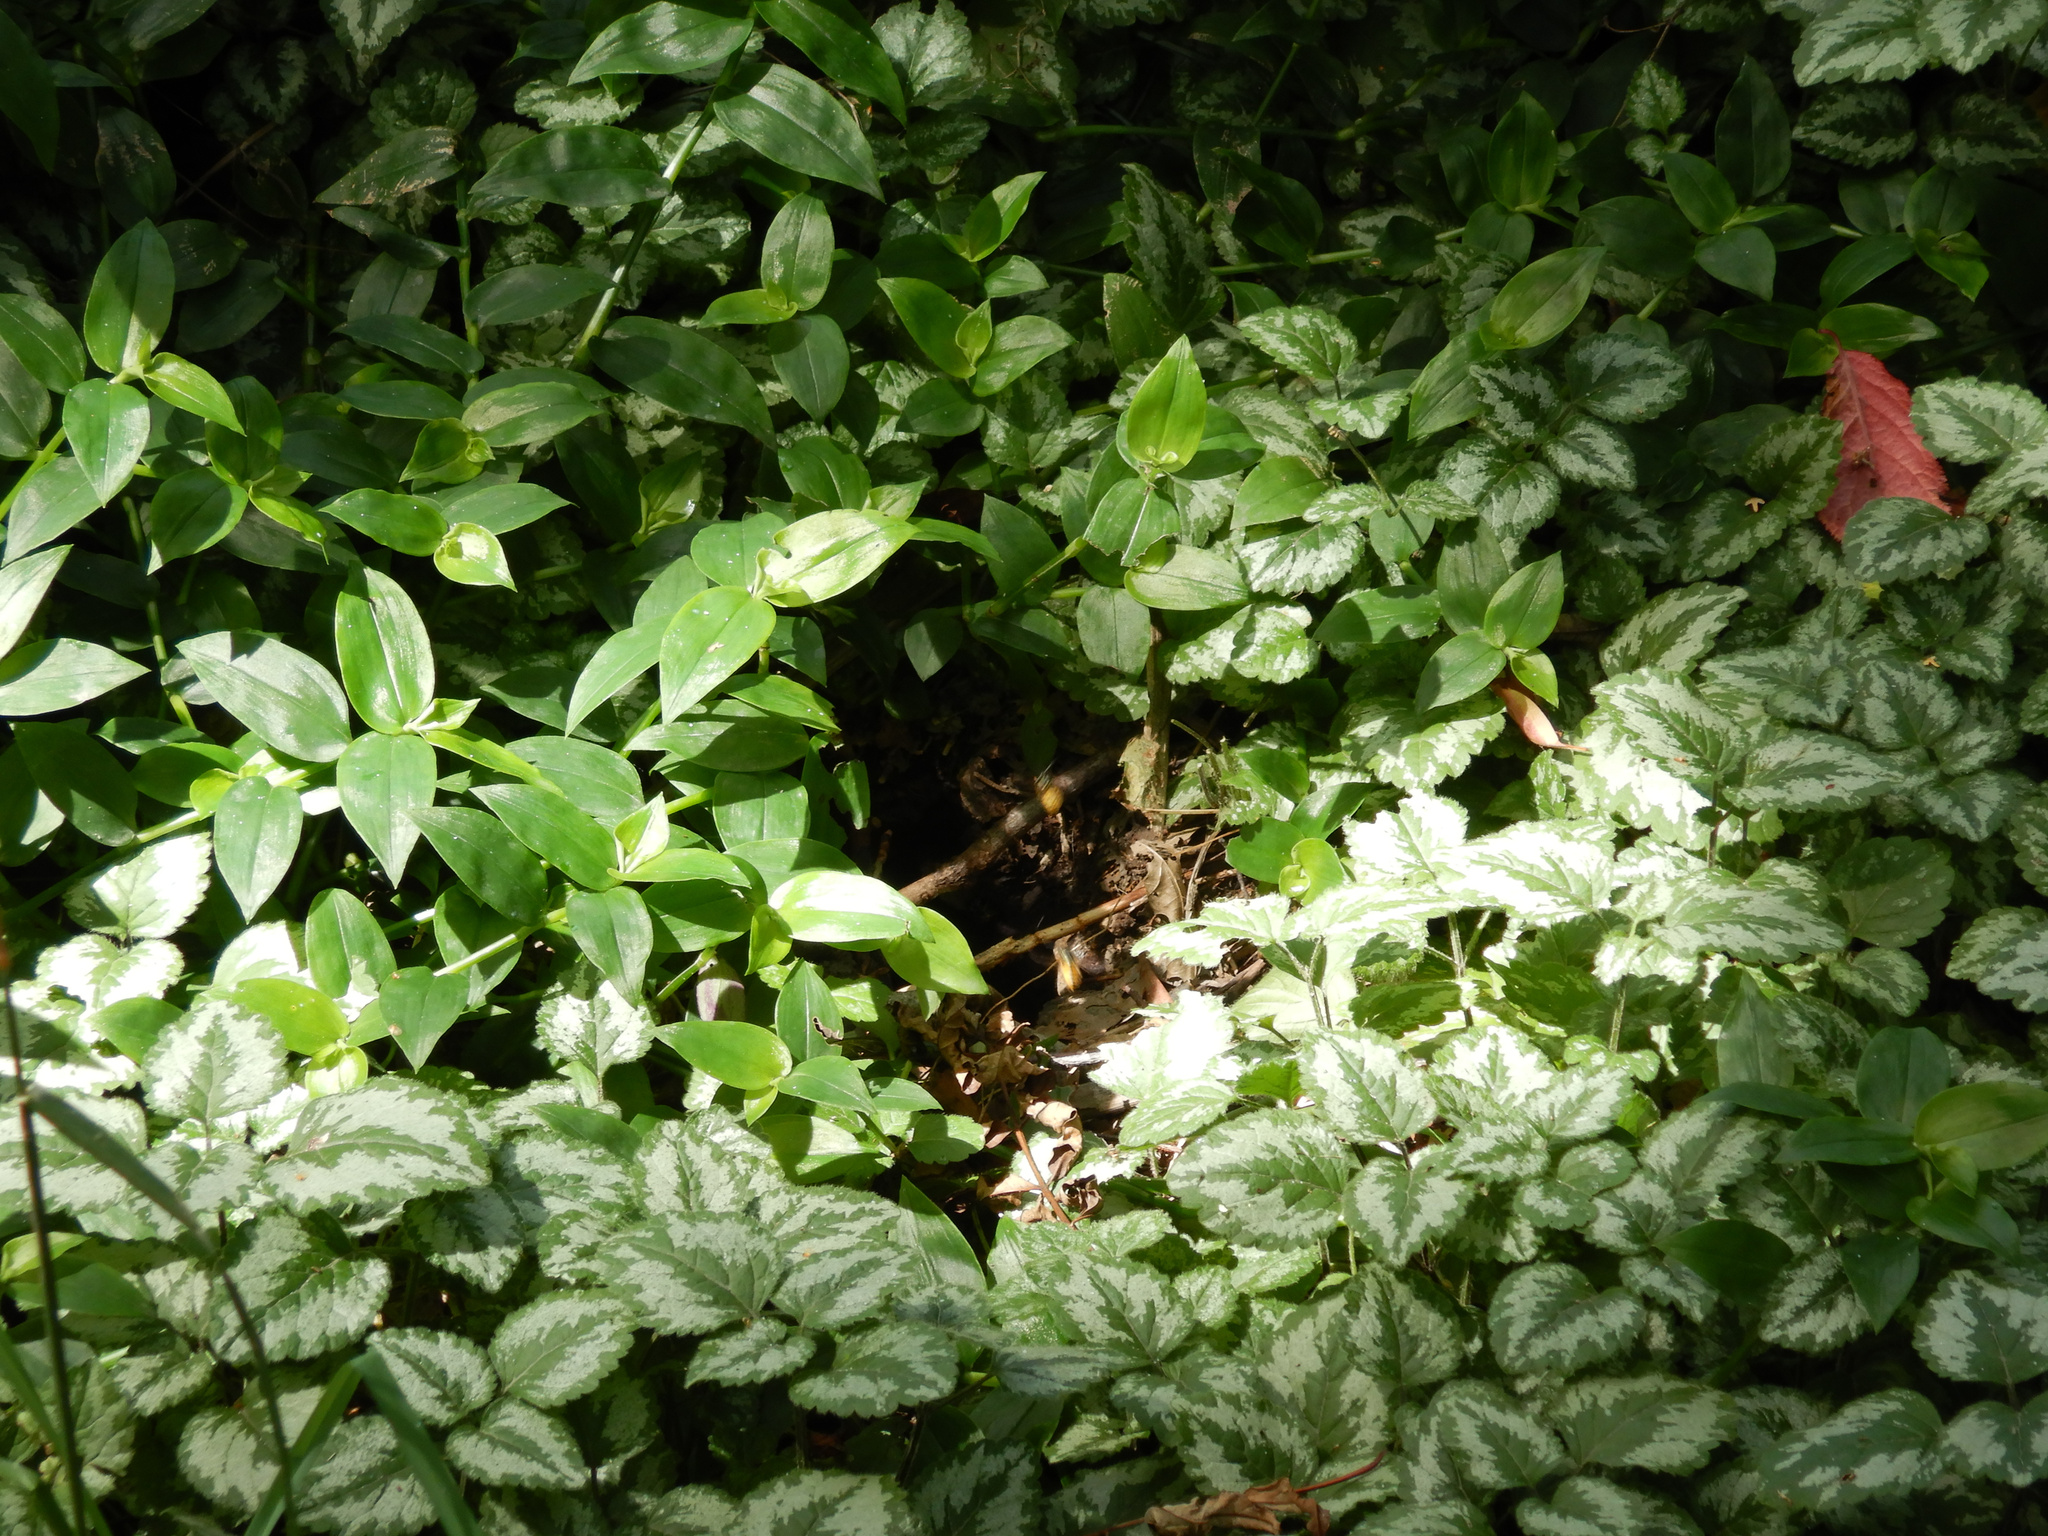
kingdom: Animalia
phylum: Arthropoda
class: Insecta
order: Hymenoptera
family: Vespidae
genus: Vespula
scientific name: Vespula
